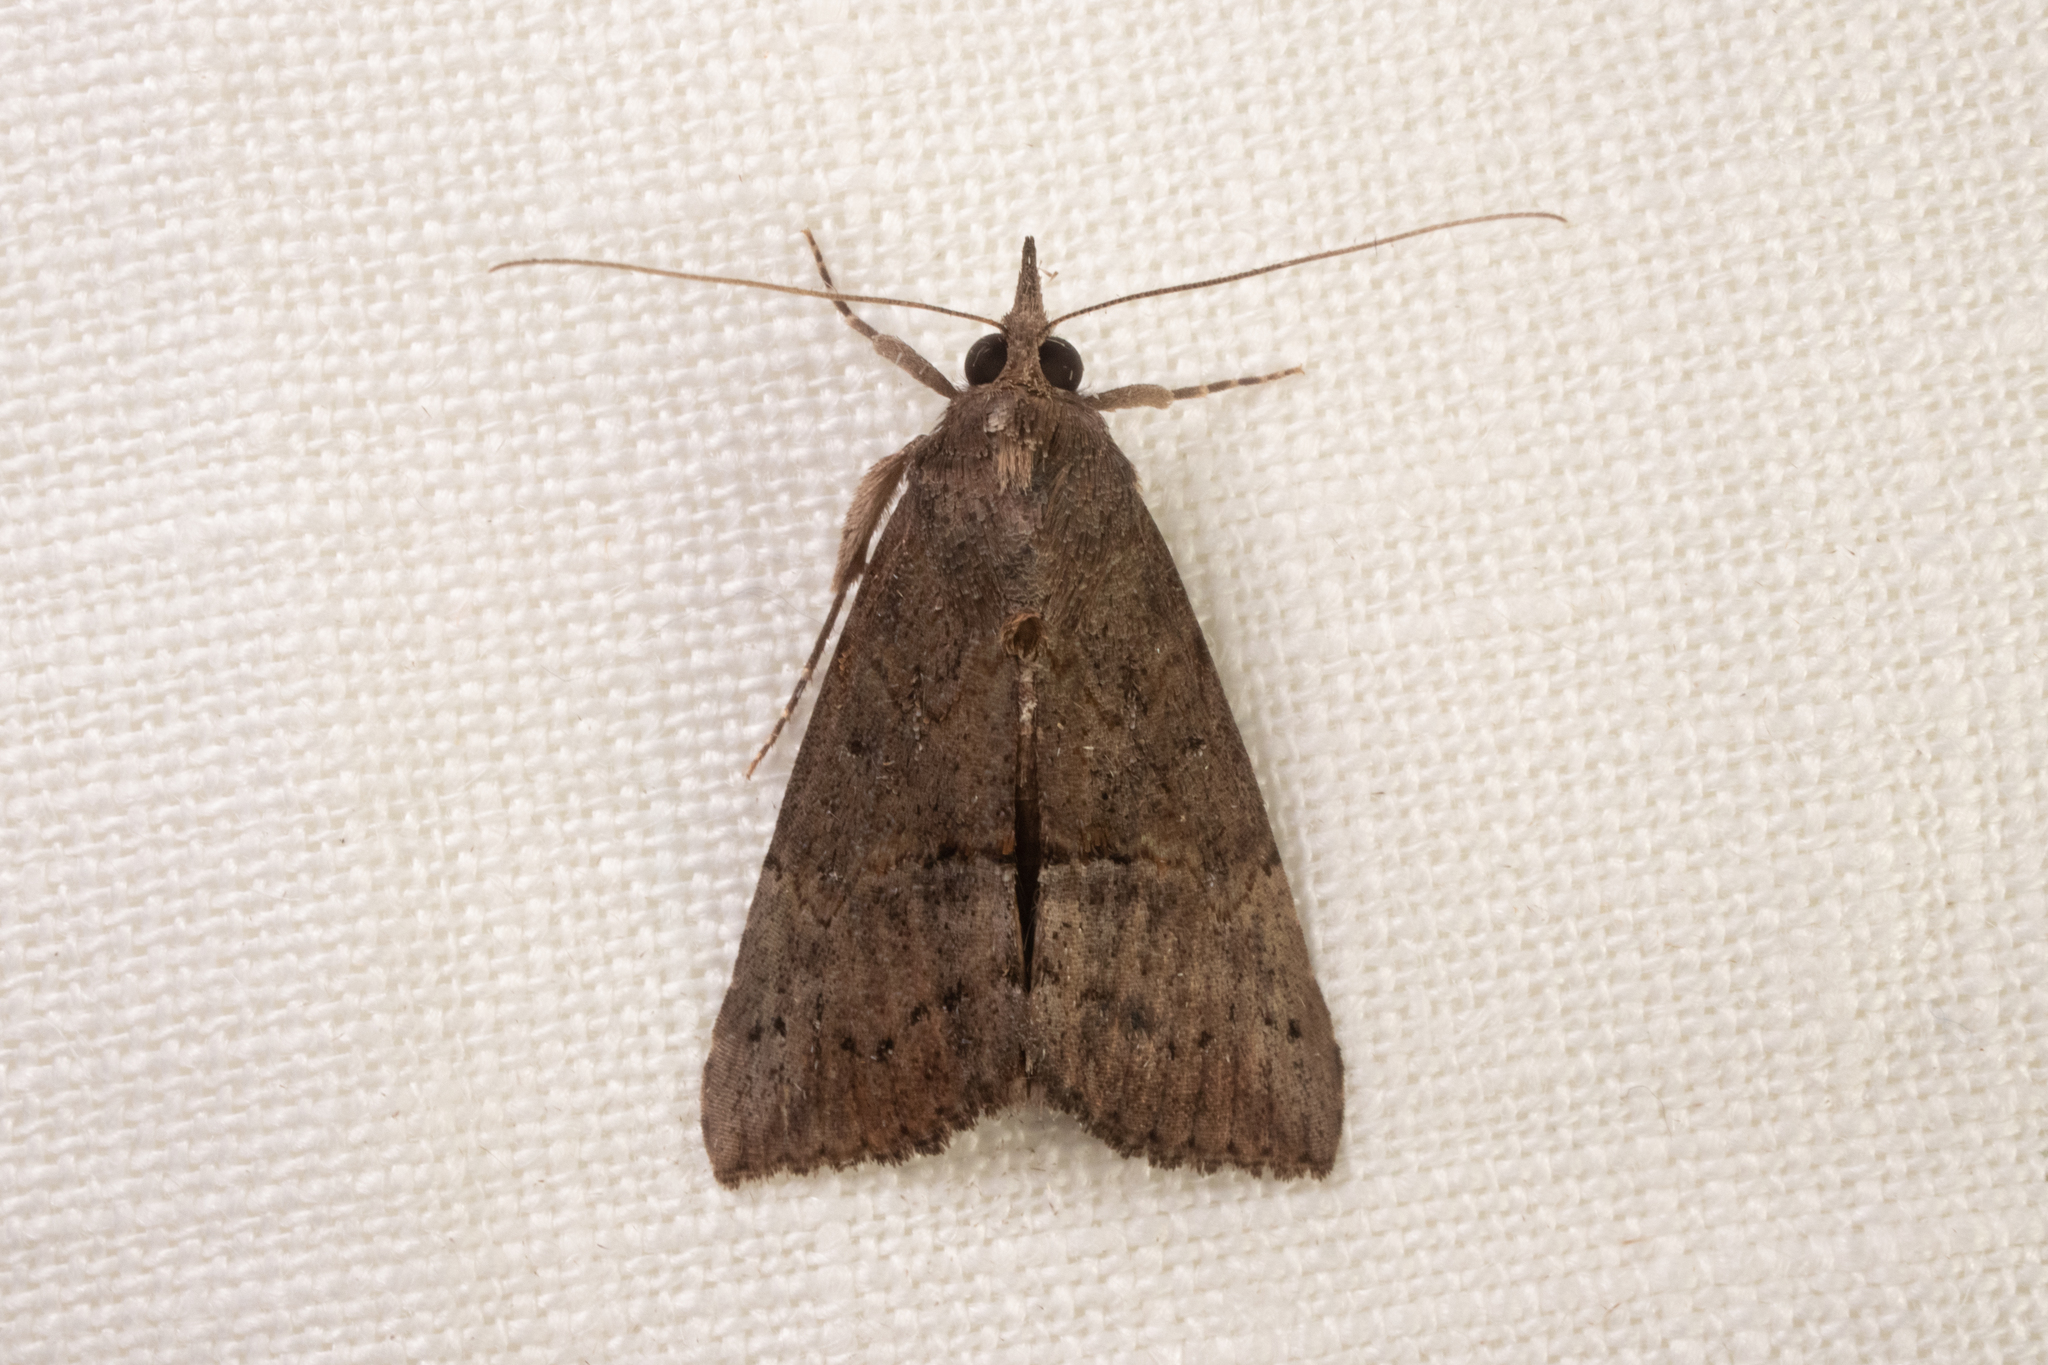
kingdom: Animalia
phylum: Arthropoda
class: Insecta
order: Lepidoptera
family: Erebidae
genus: Hypena
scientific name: Hypena scabra
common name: Green cloverworm
